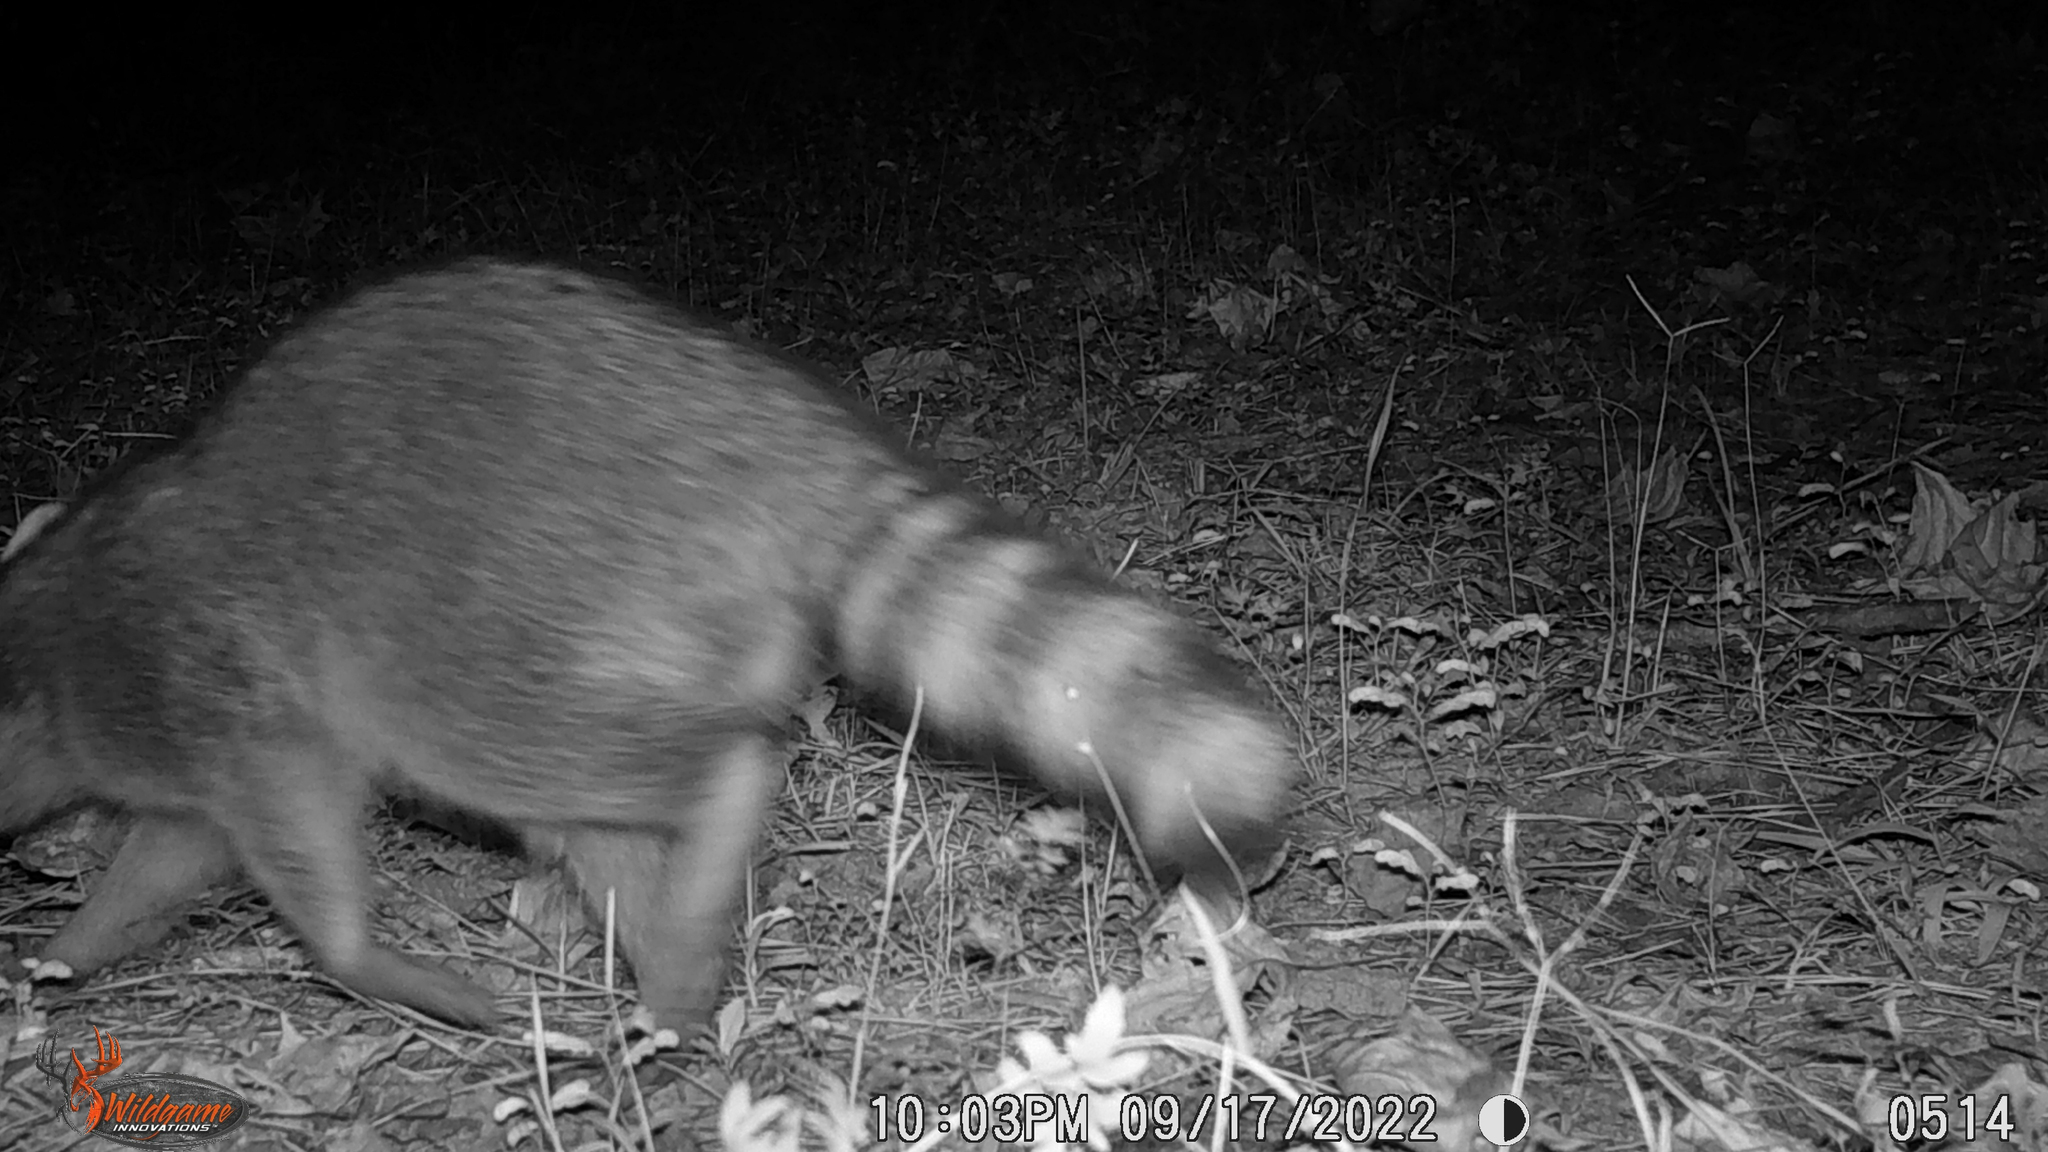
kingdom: Animalia
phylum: Chordata
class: Mammalia
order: Carnivora
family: Procyonidae
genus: Procyon
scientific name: Procyon lotor
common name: Raccoon
